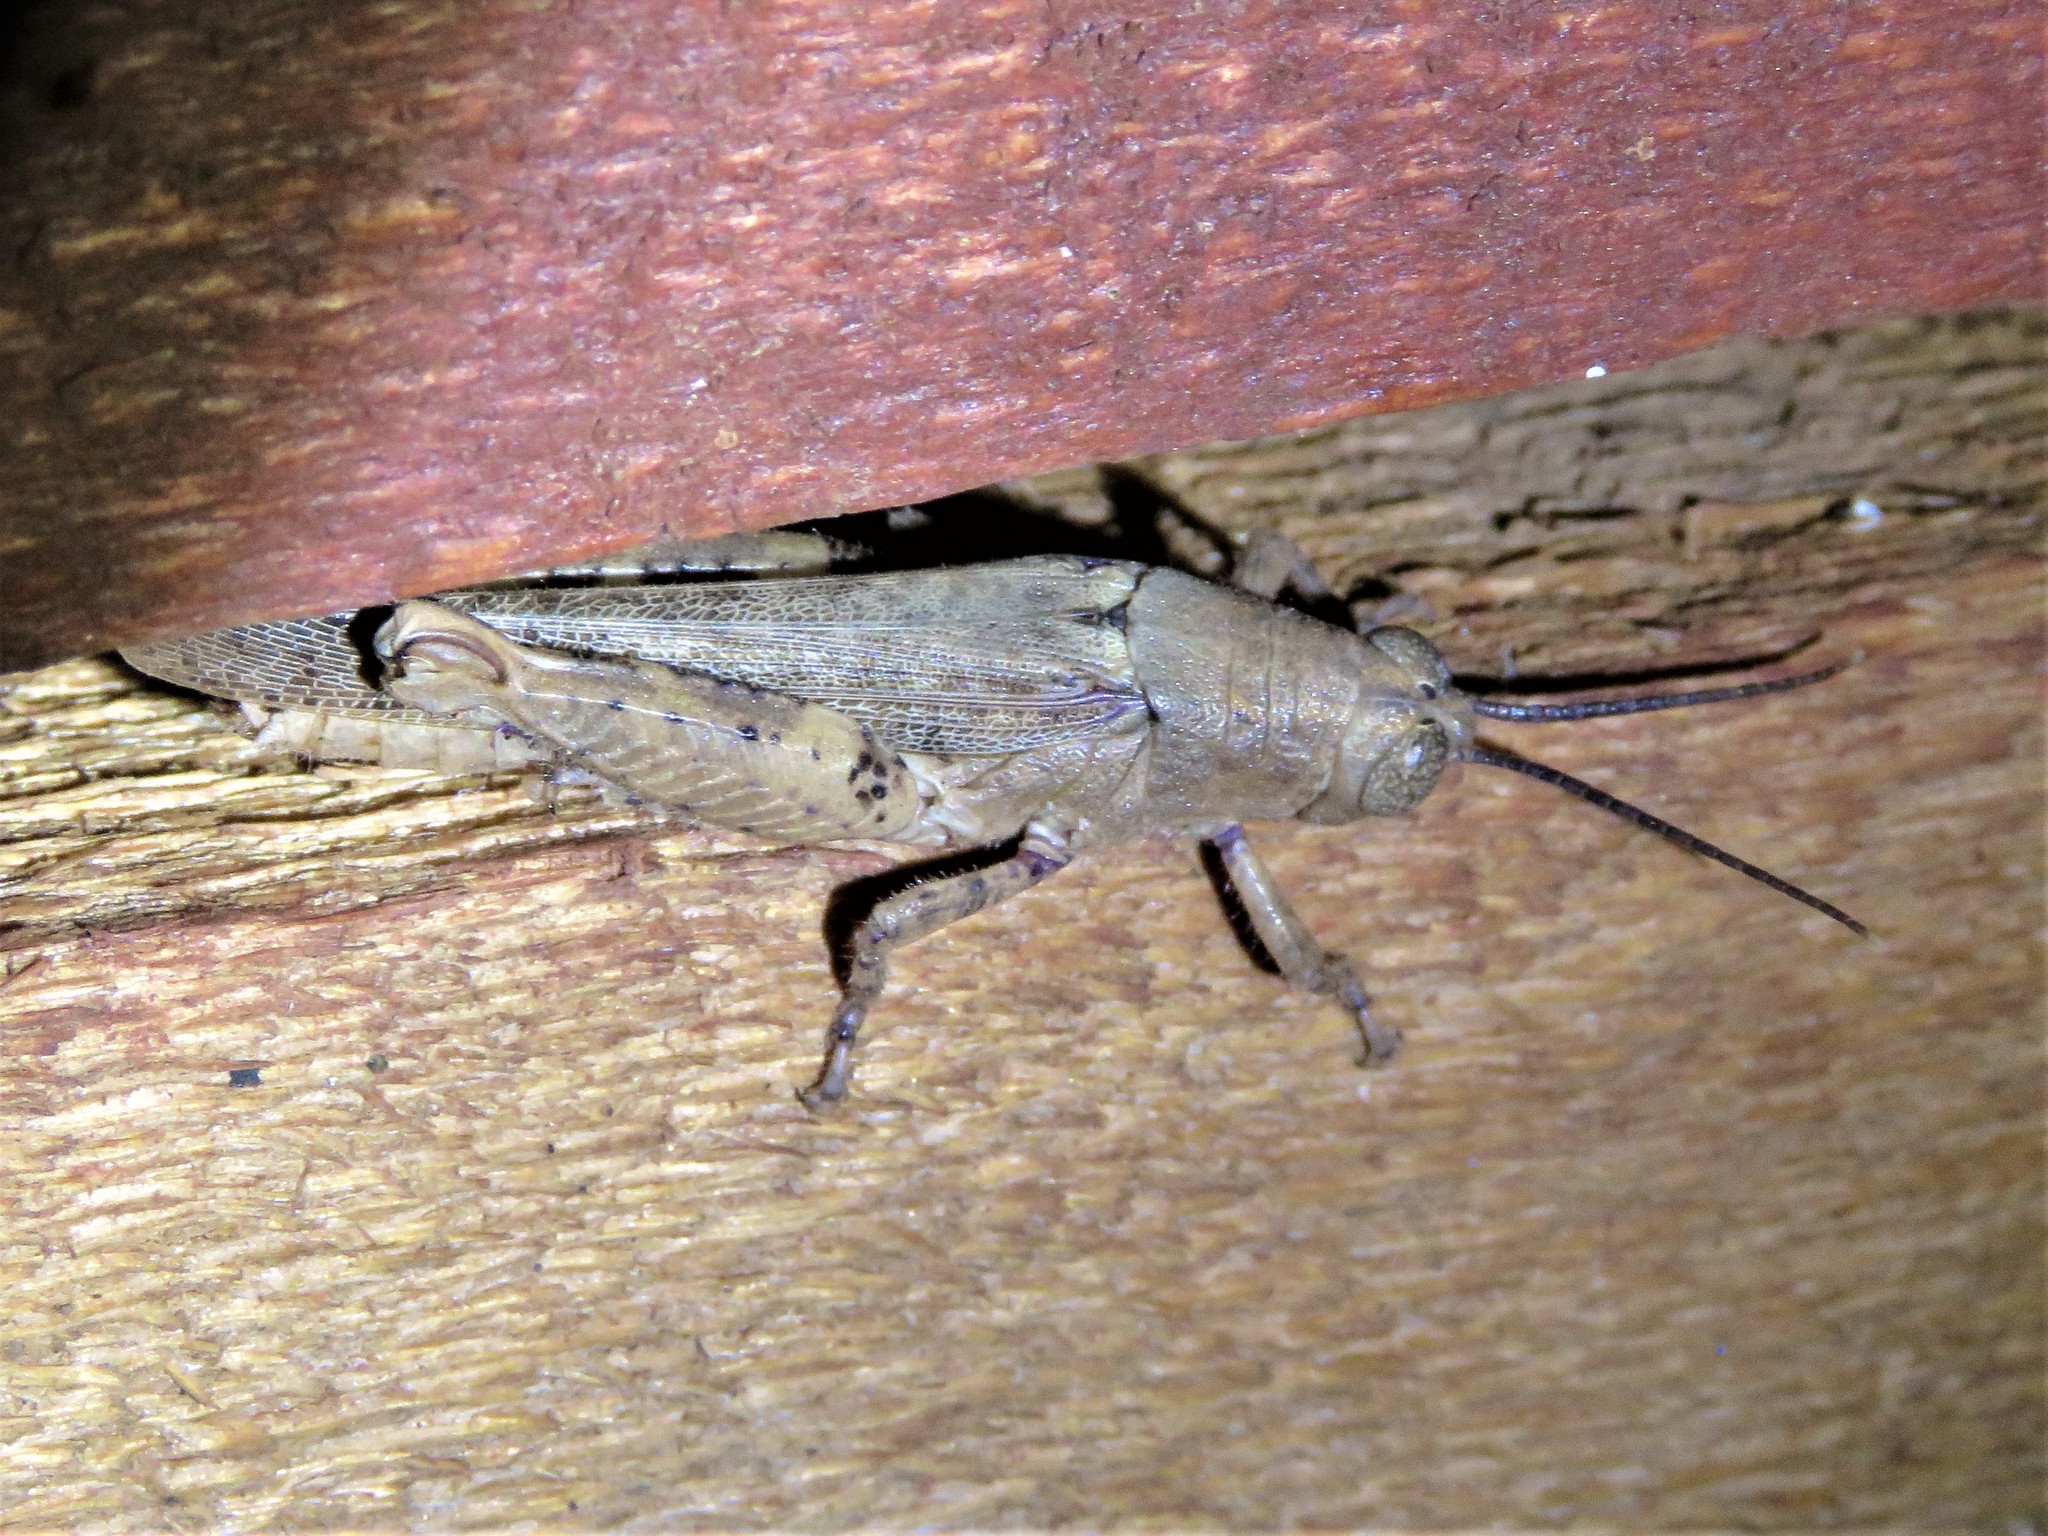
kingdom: Animalia
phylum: Arthropoda
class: Insecta
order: Orthoptera
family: Acrididae
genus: Stenocrobylus
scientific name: Stenocrobylus cervinus
